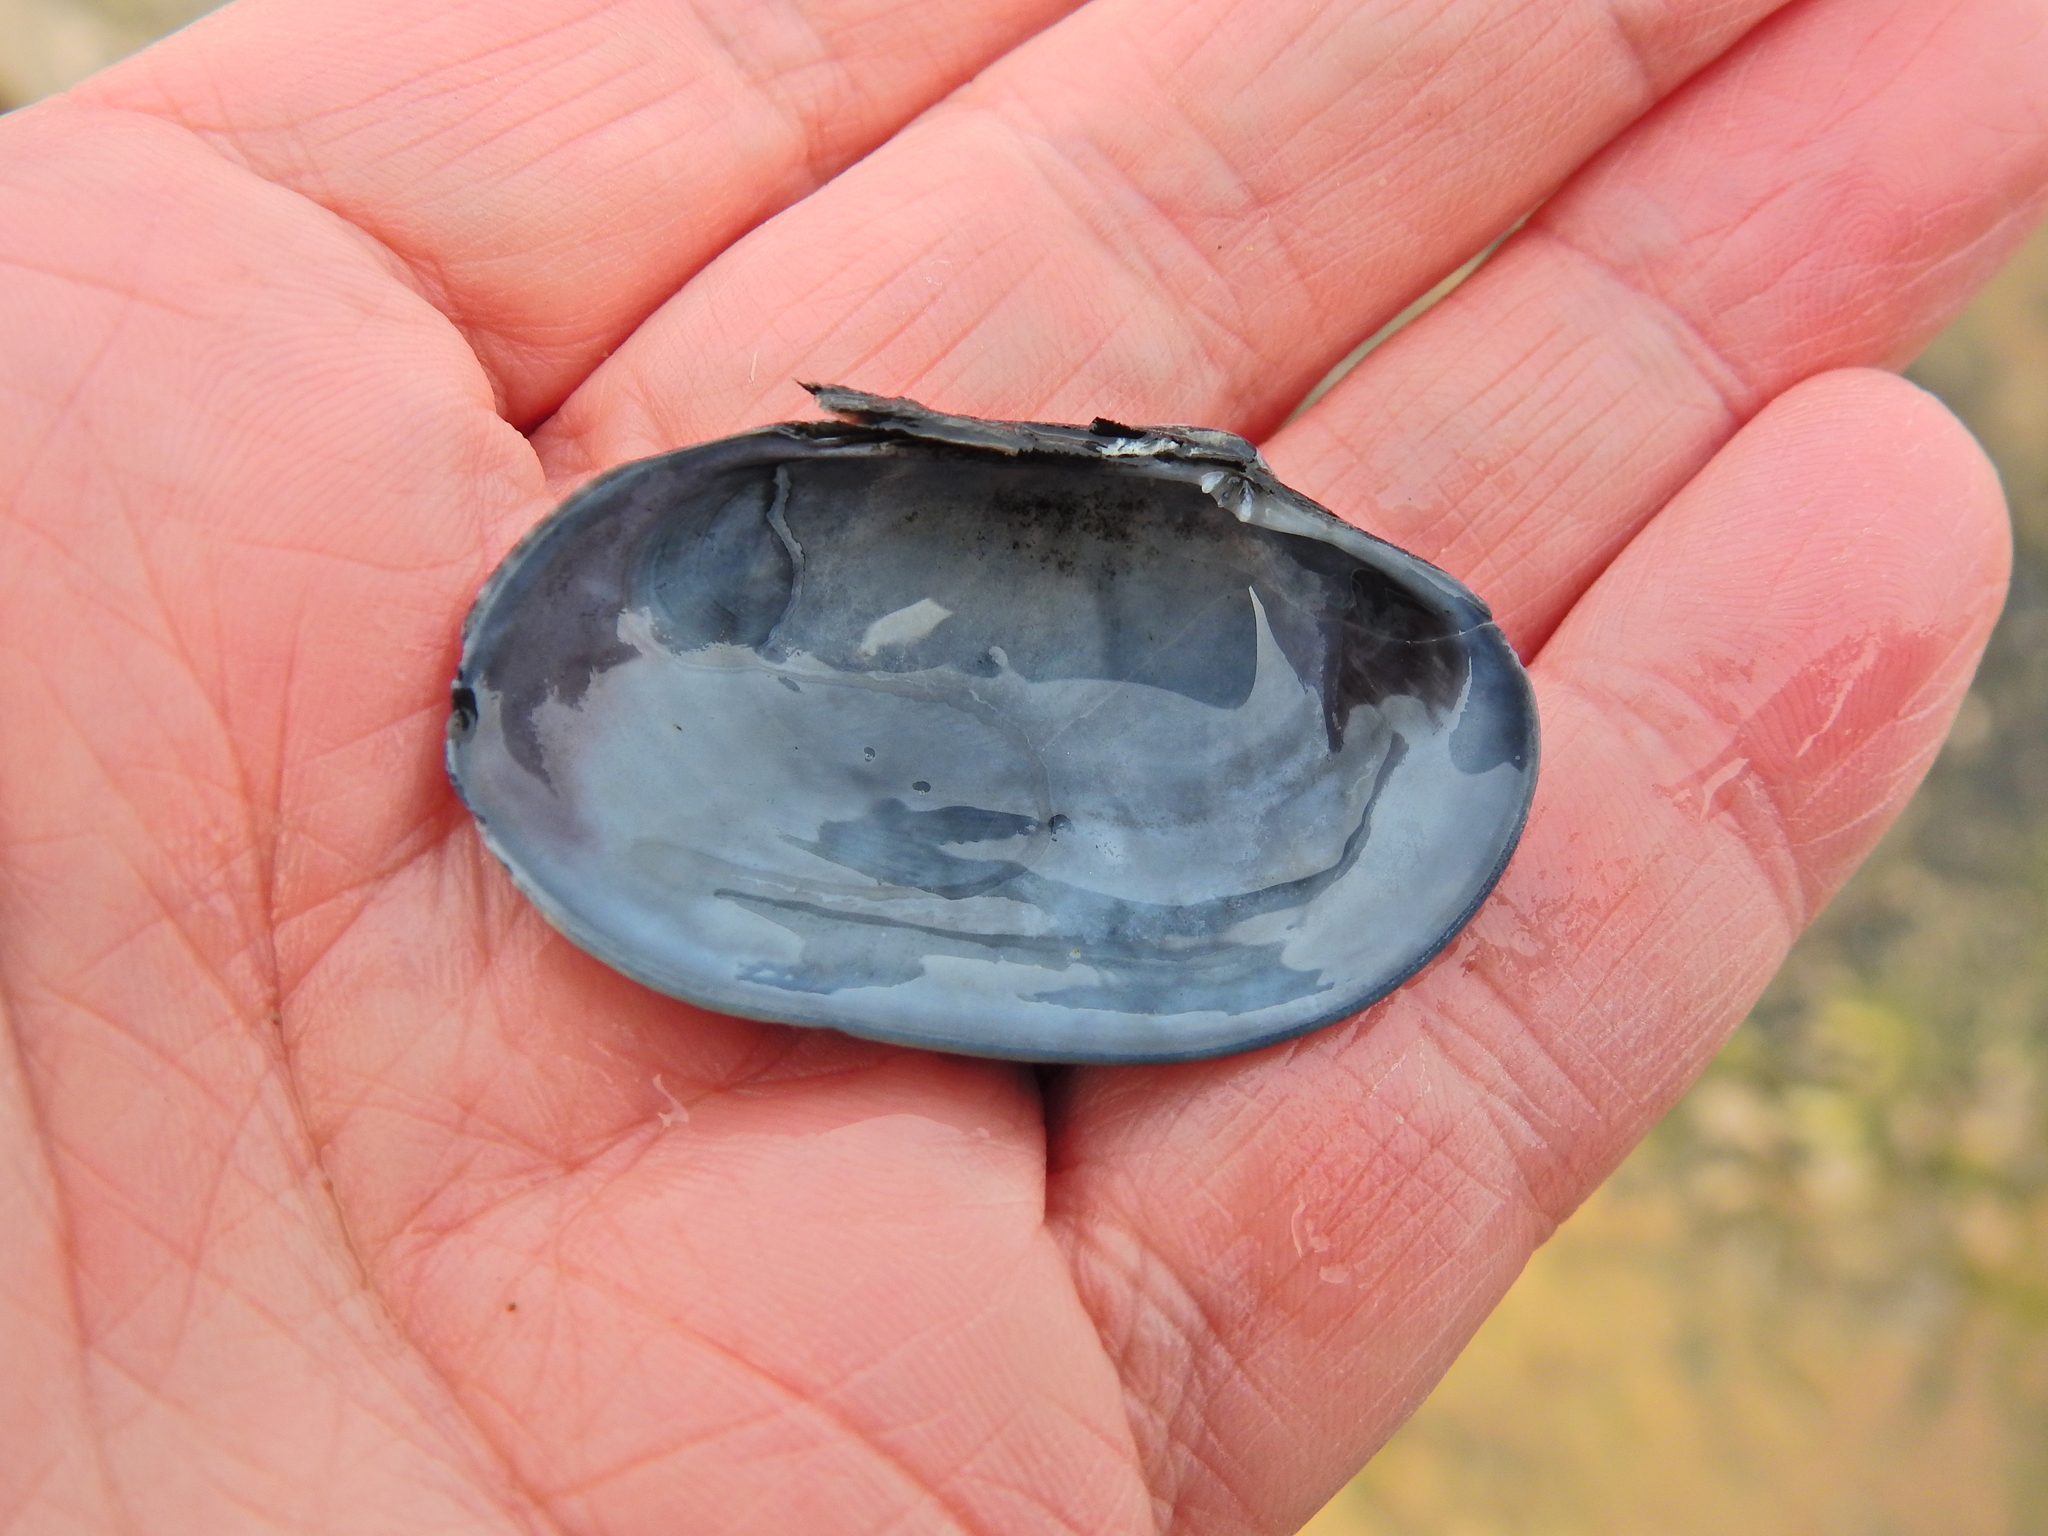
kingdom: Animalia
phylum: Mollusca
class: Bivalvia
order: Venerida
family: Veneridae
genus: Venerupis
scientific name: Venerupis corrugata
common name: Pullet carpet shell
